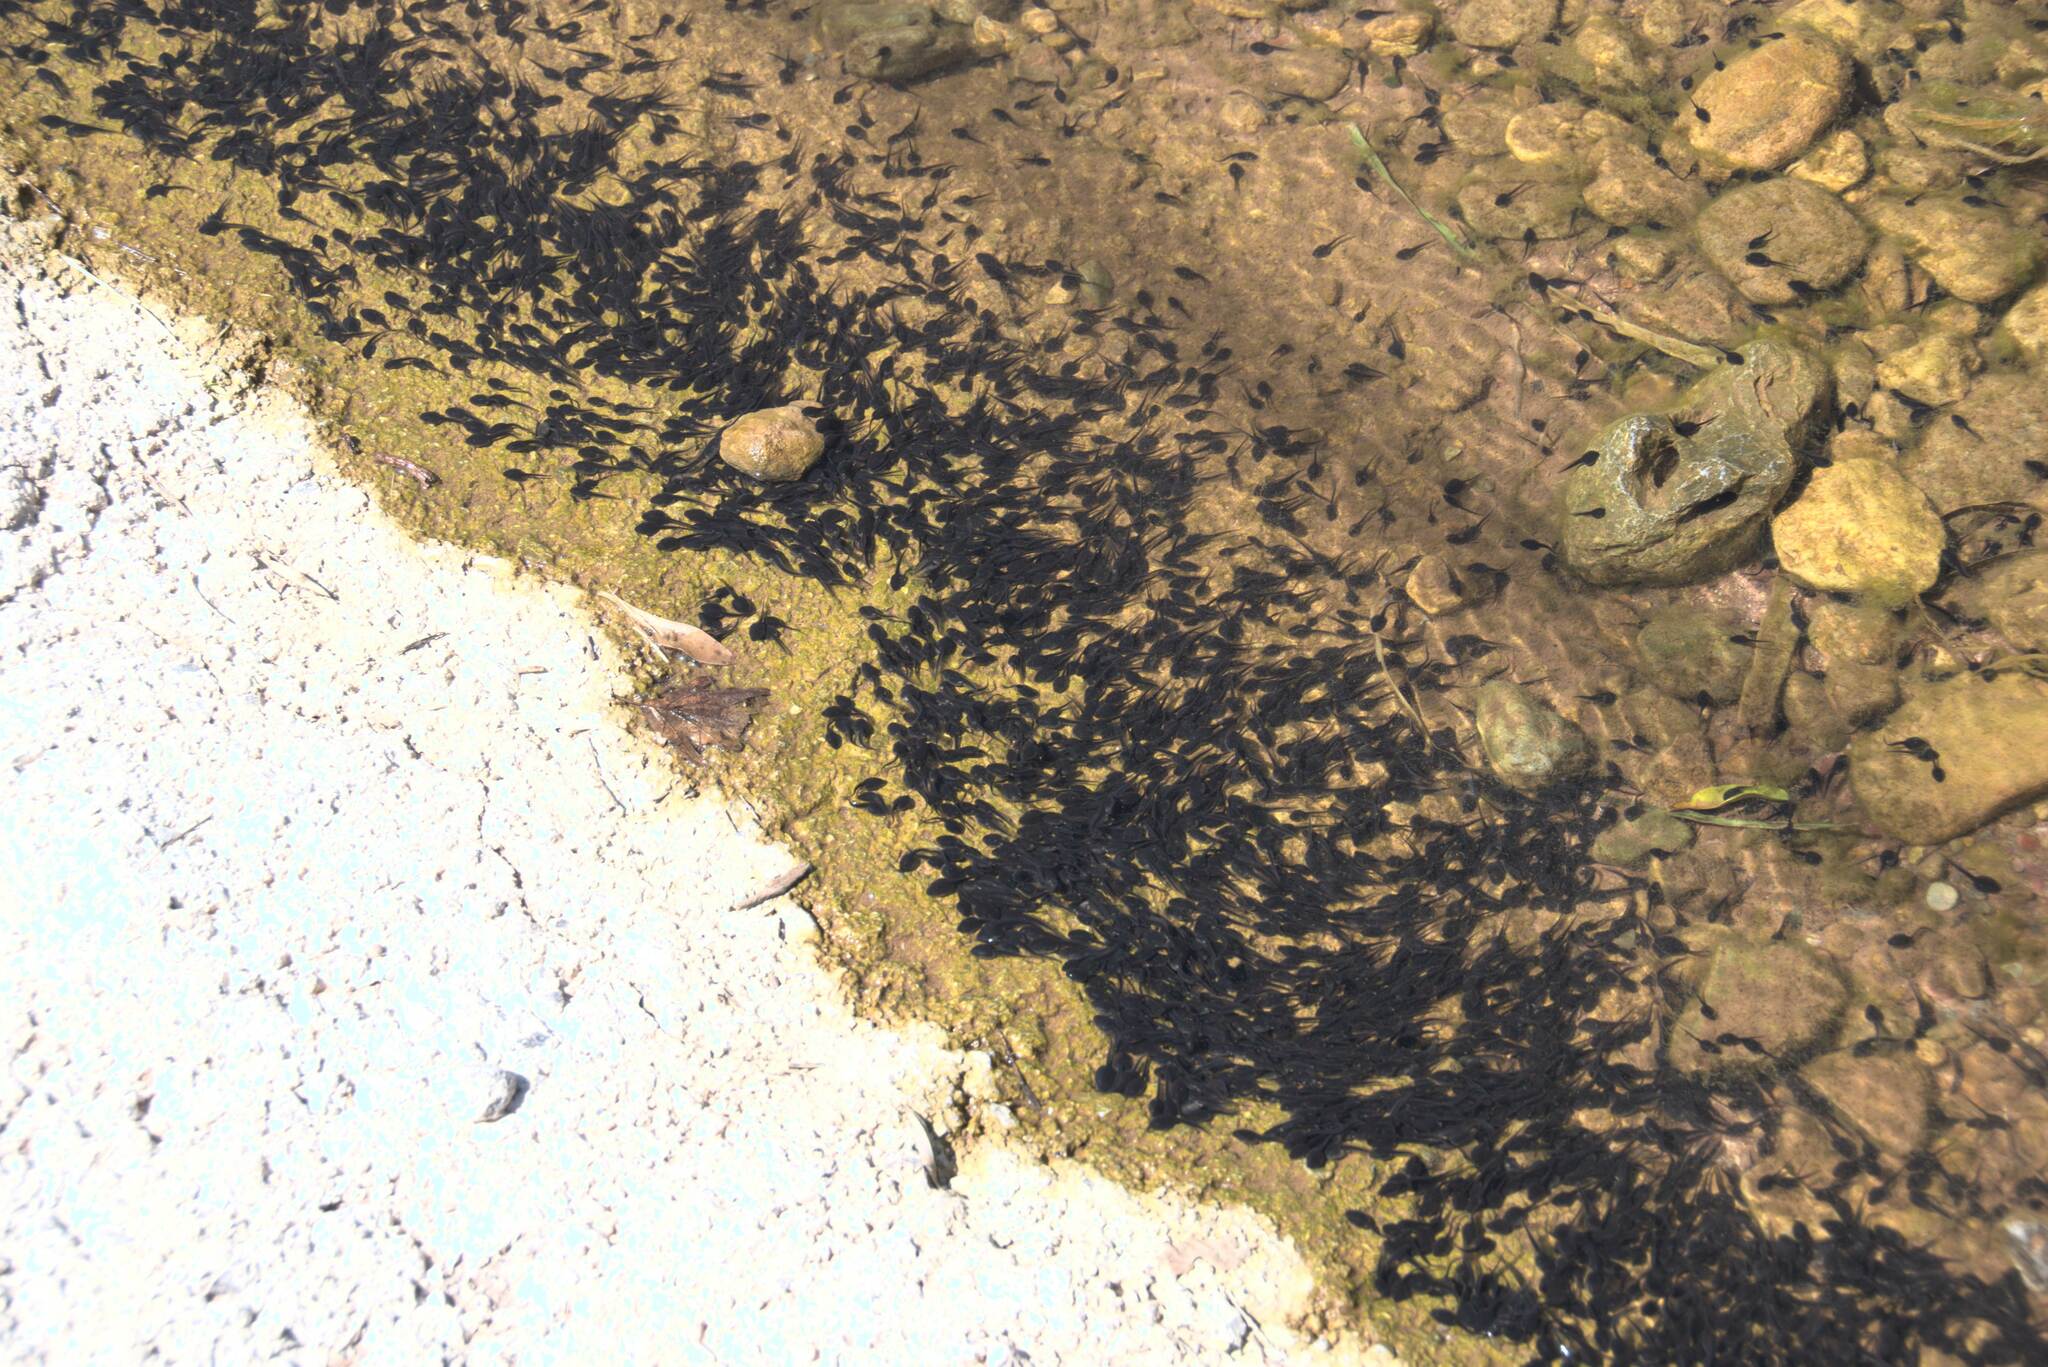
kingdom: Animalia
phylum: Chordata
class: Amphibia
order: Anura
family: Bufonidae
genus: Bufotes
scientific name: Bufotes viridis
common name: European green toad
